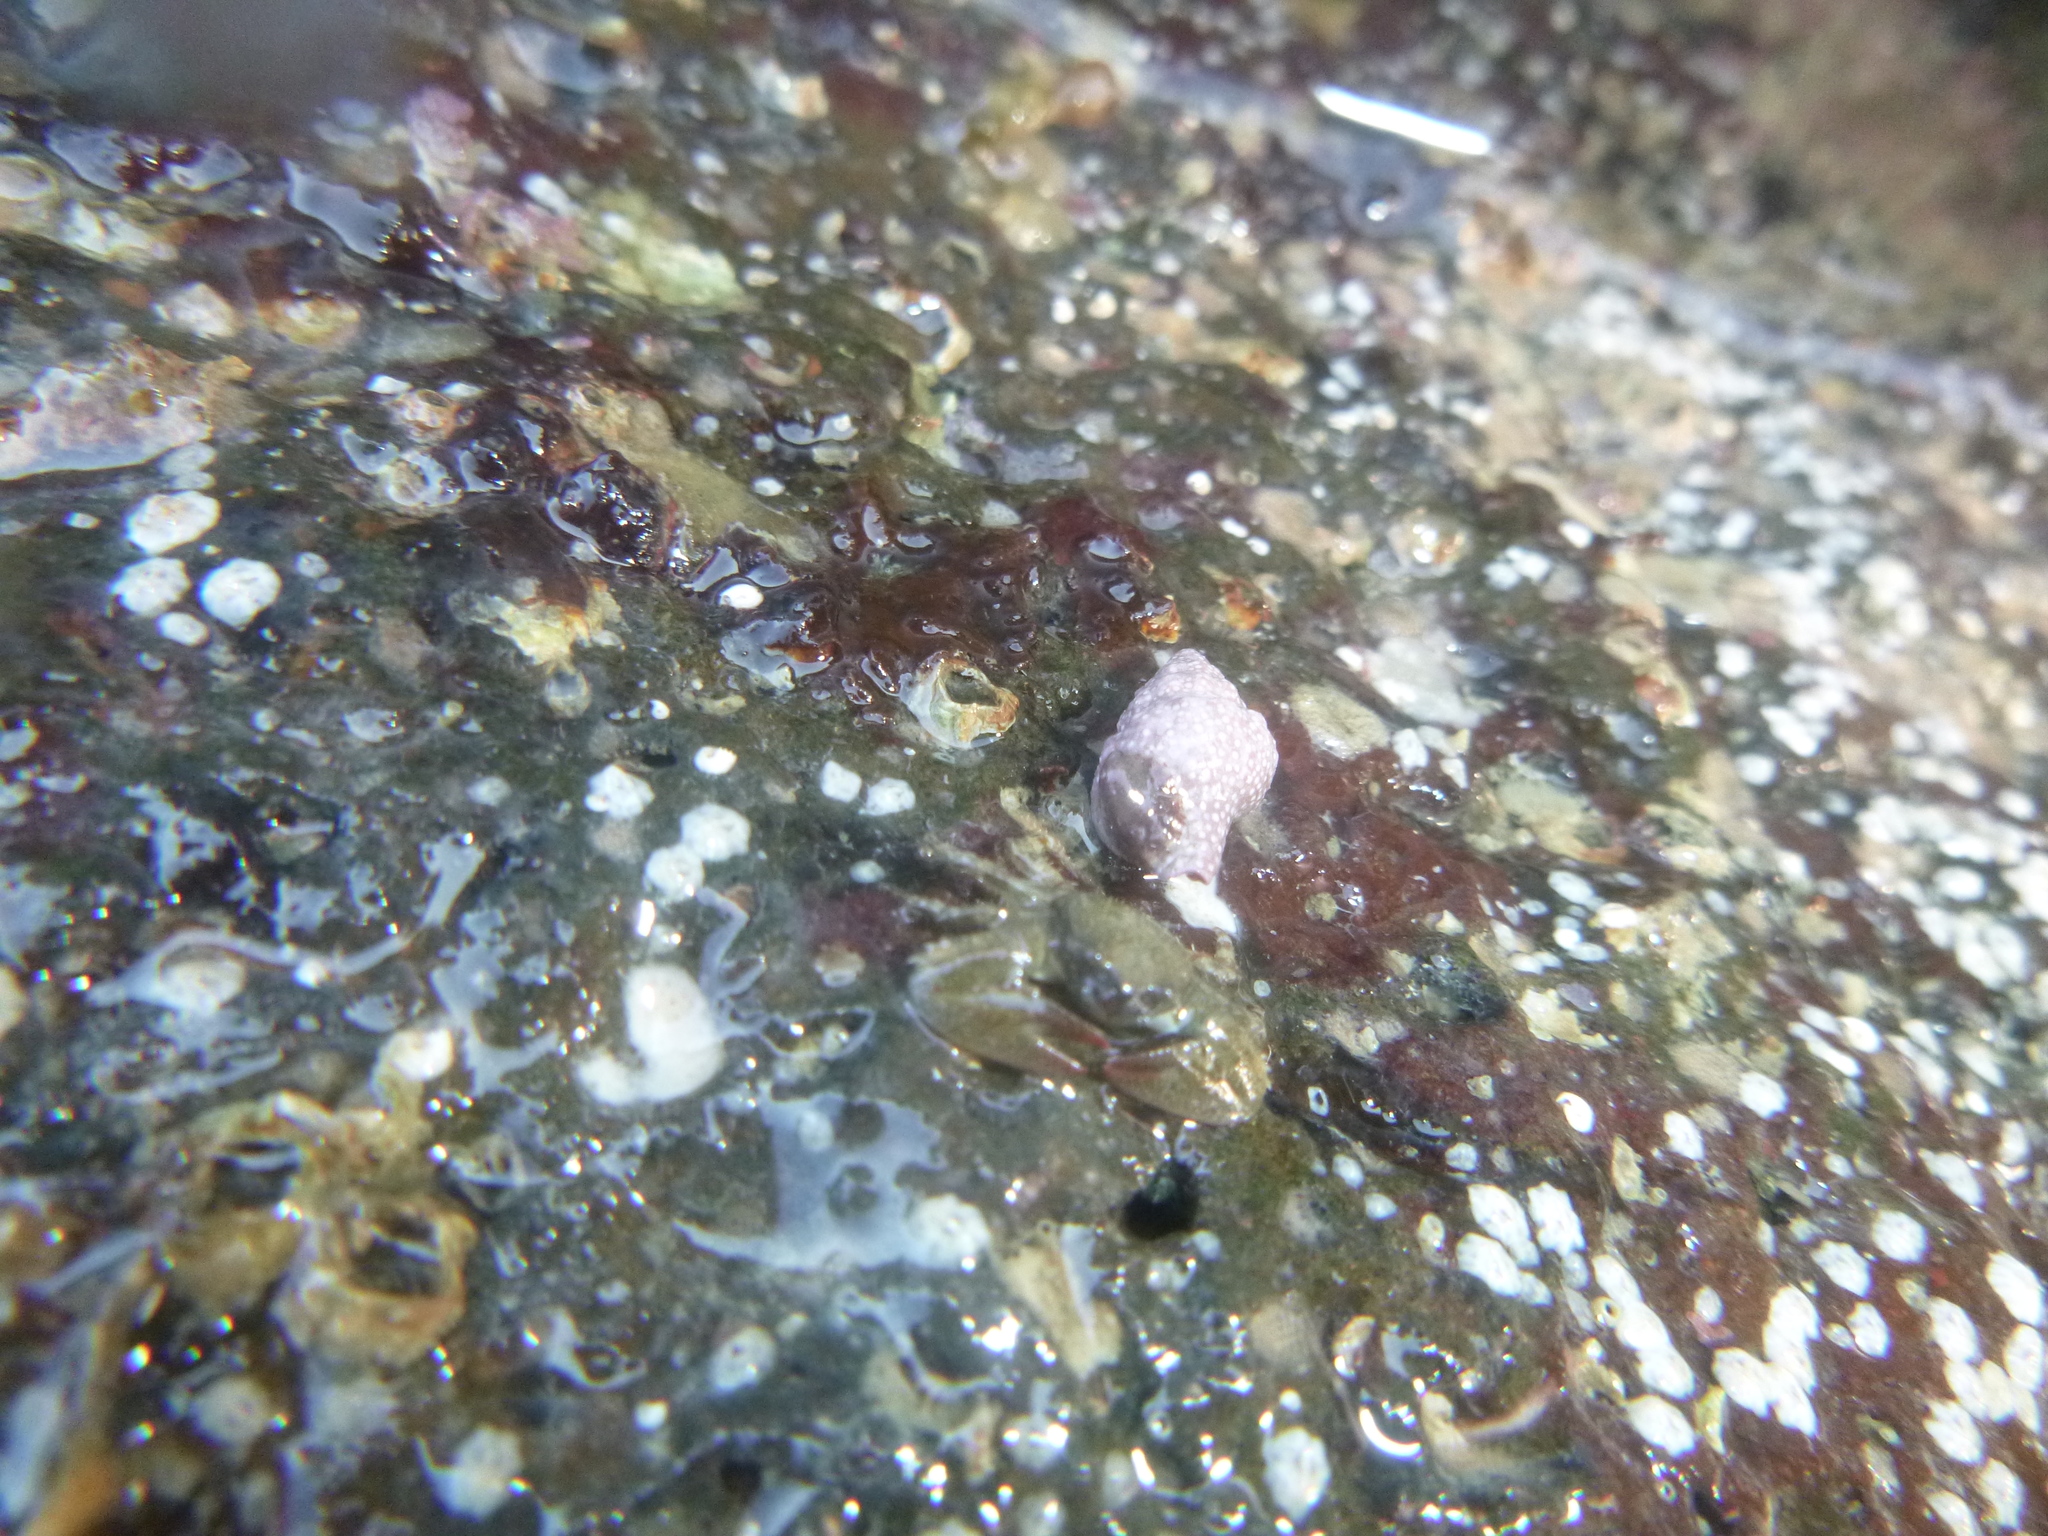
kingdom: Animalia
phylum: Arthropoda
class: Malacostraca
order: Decapoda
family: Porcellanidae
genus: Petrolisthes
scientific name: Petrolisthes elongatus
